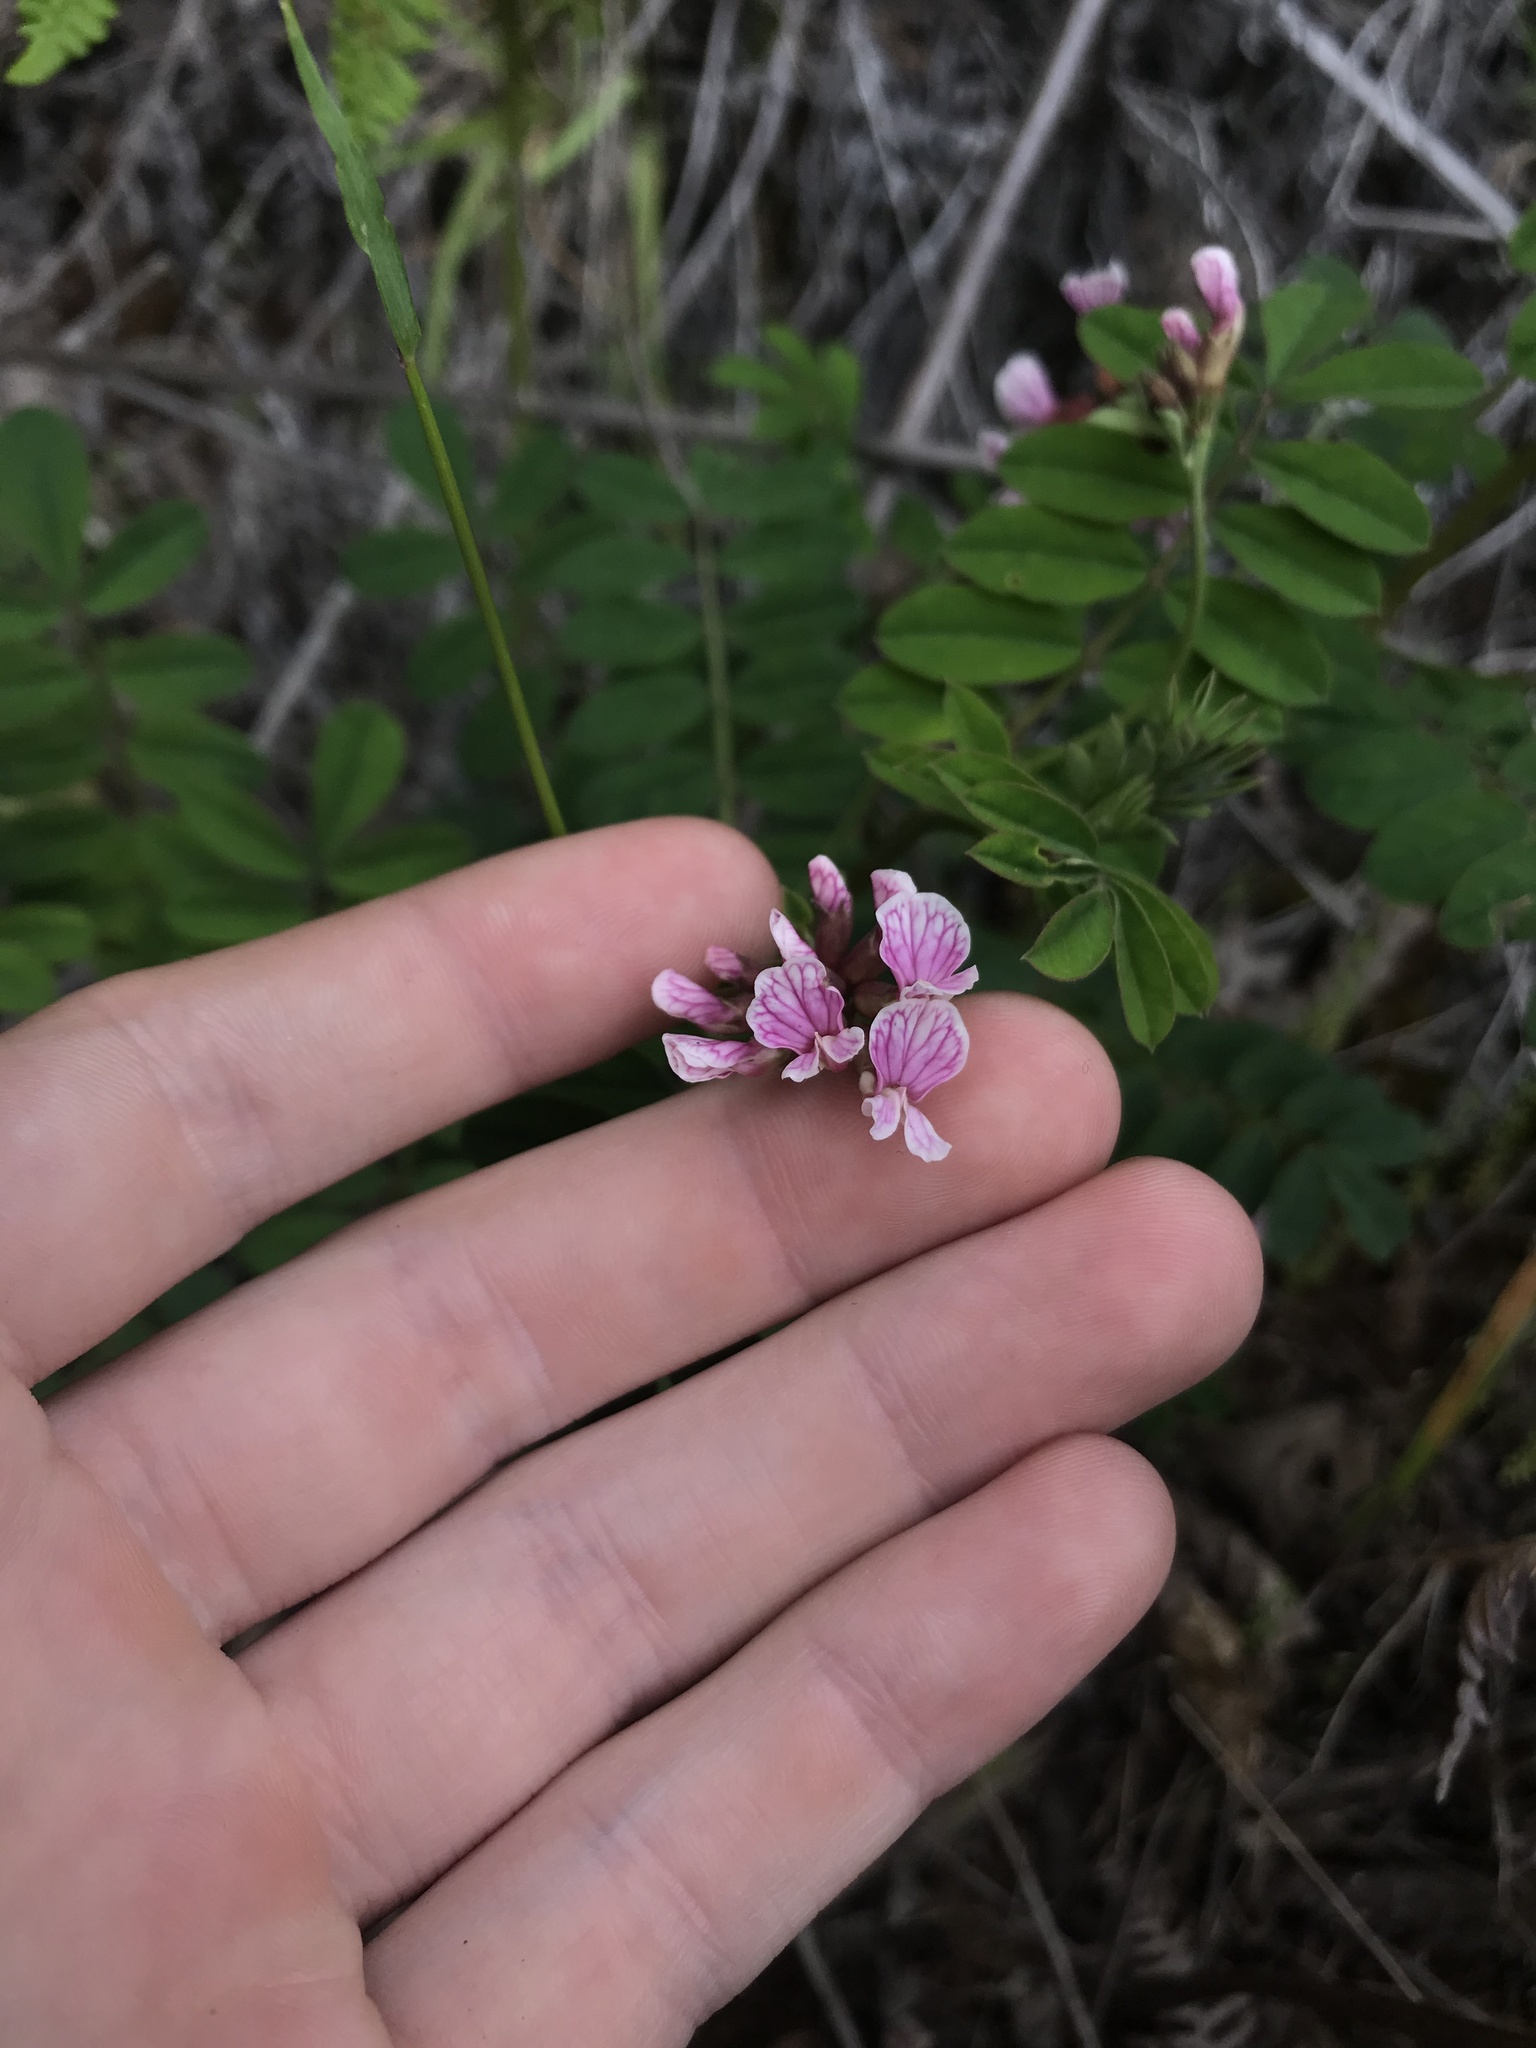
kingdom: Plantae
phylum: Tracheophyta
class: Magnoliopsida
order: Fabales
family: Fabaceae
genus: Hosackia
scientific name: Hosackia rosea
